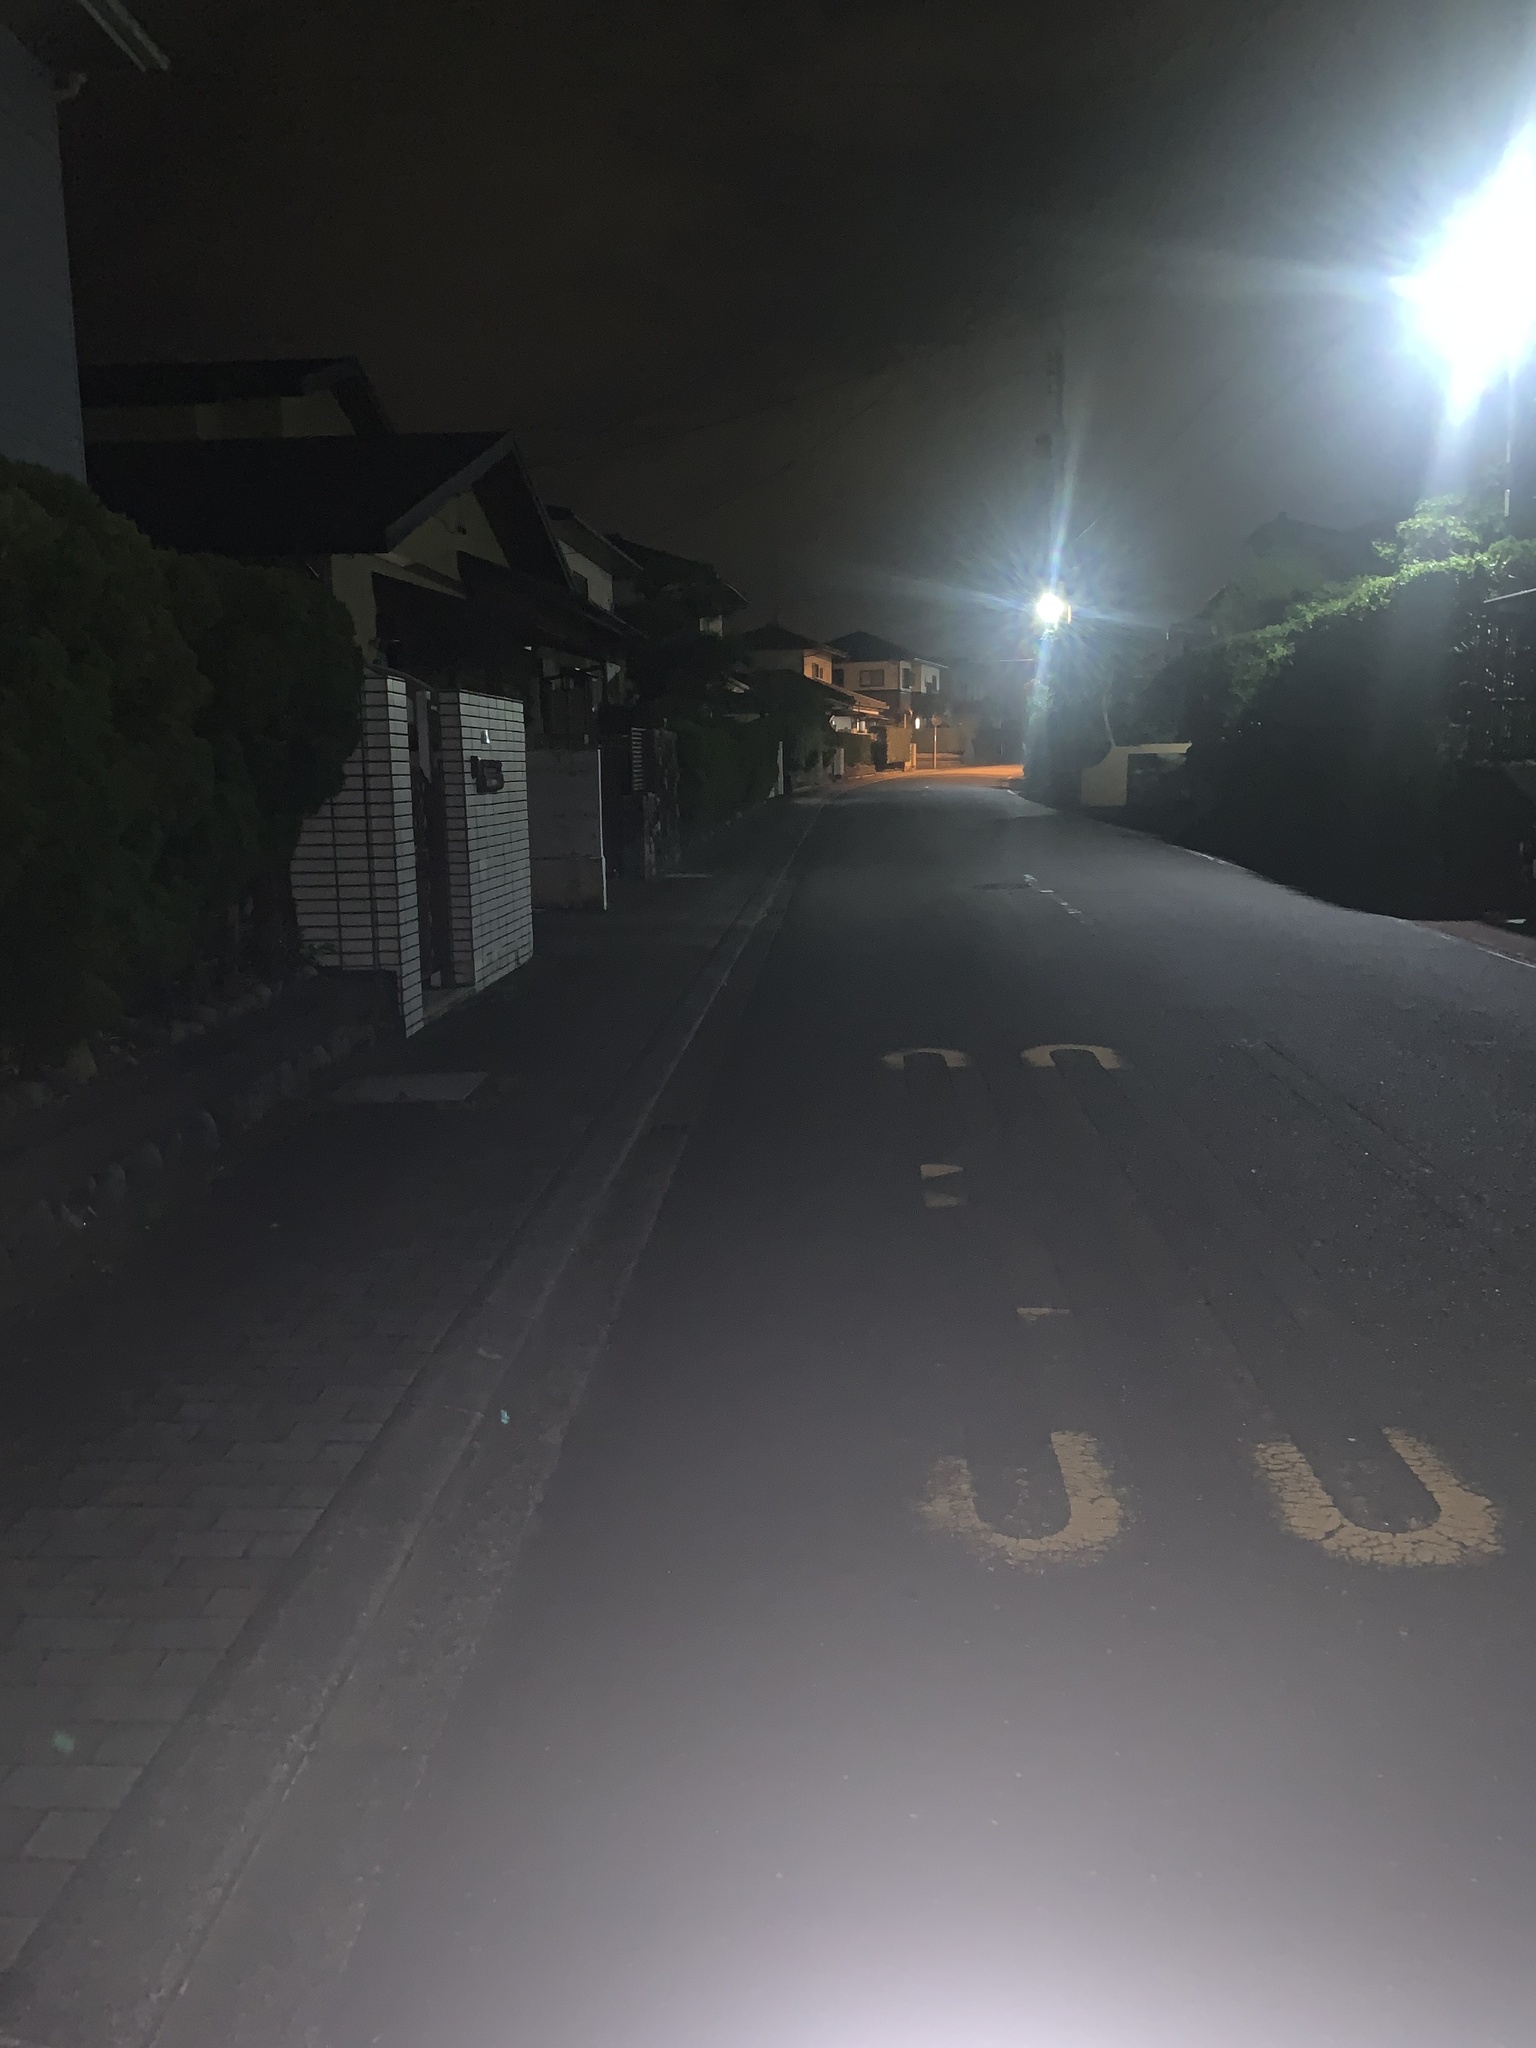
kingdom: Animalia
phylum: Arthropoda
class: Insecta
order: Orthoptera
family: Gryllidae
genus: Loxoblemmus
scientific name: Loxoblemmus arietulus
